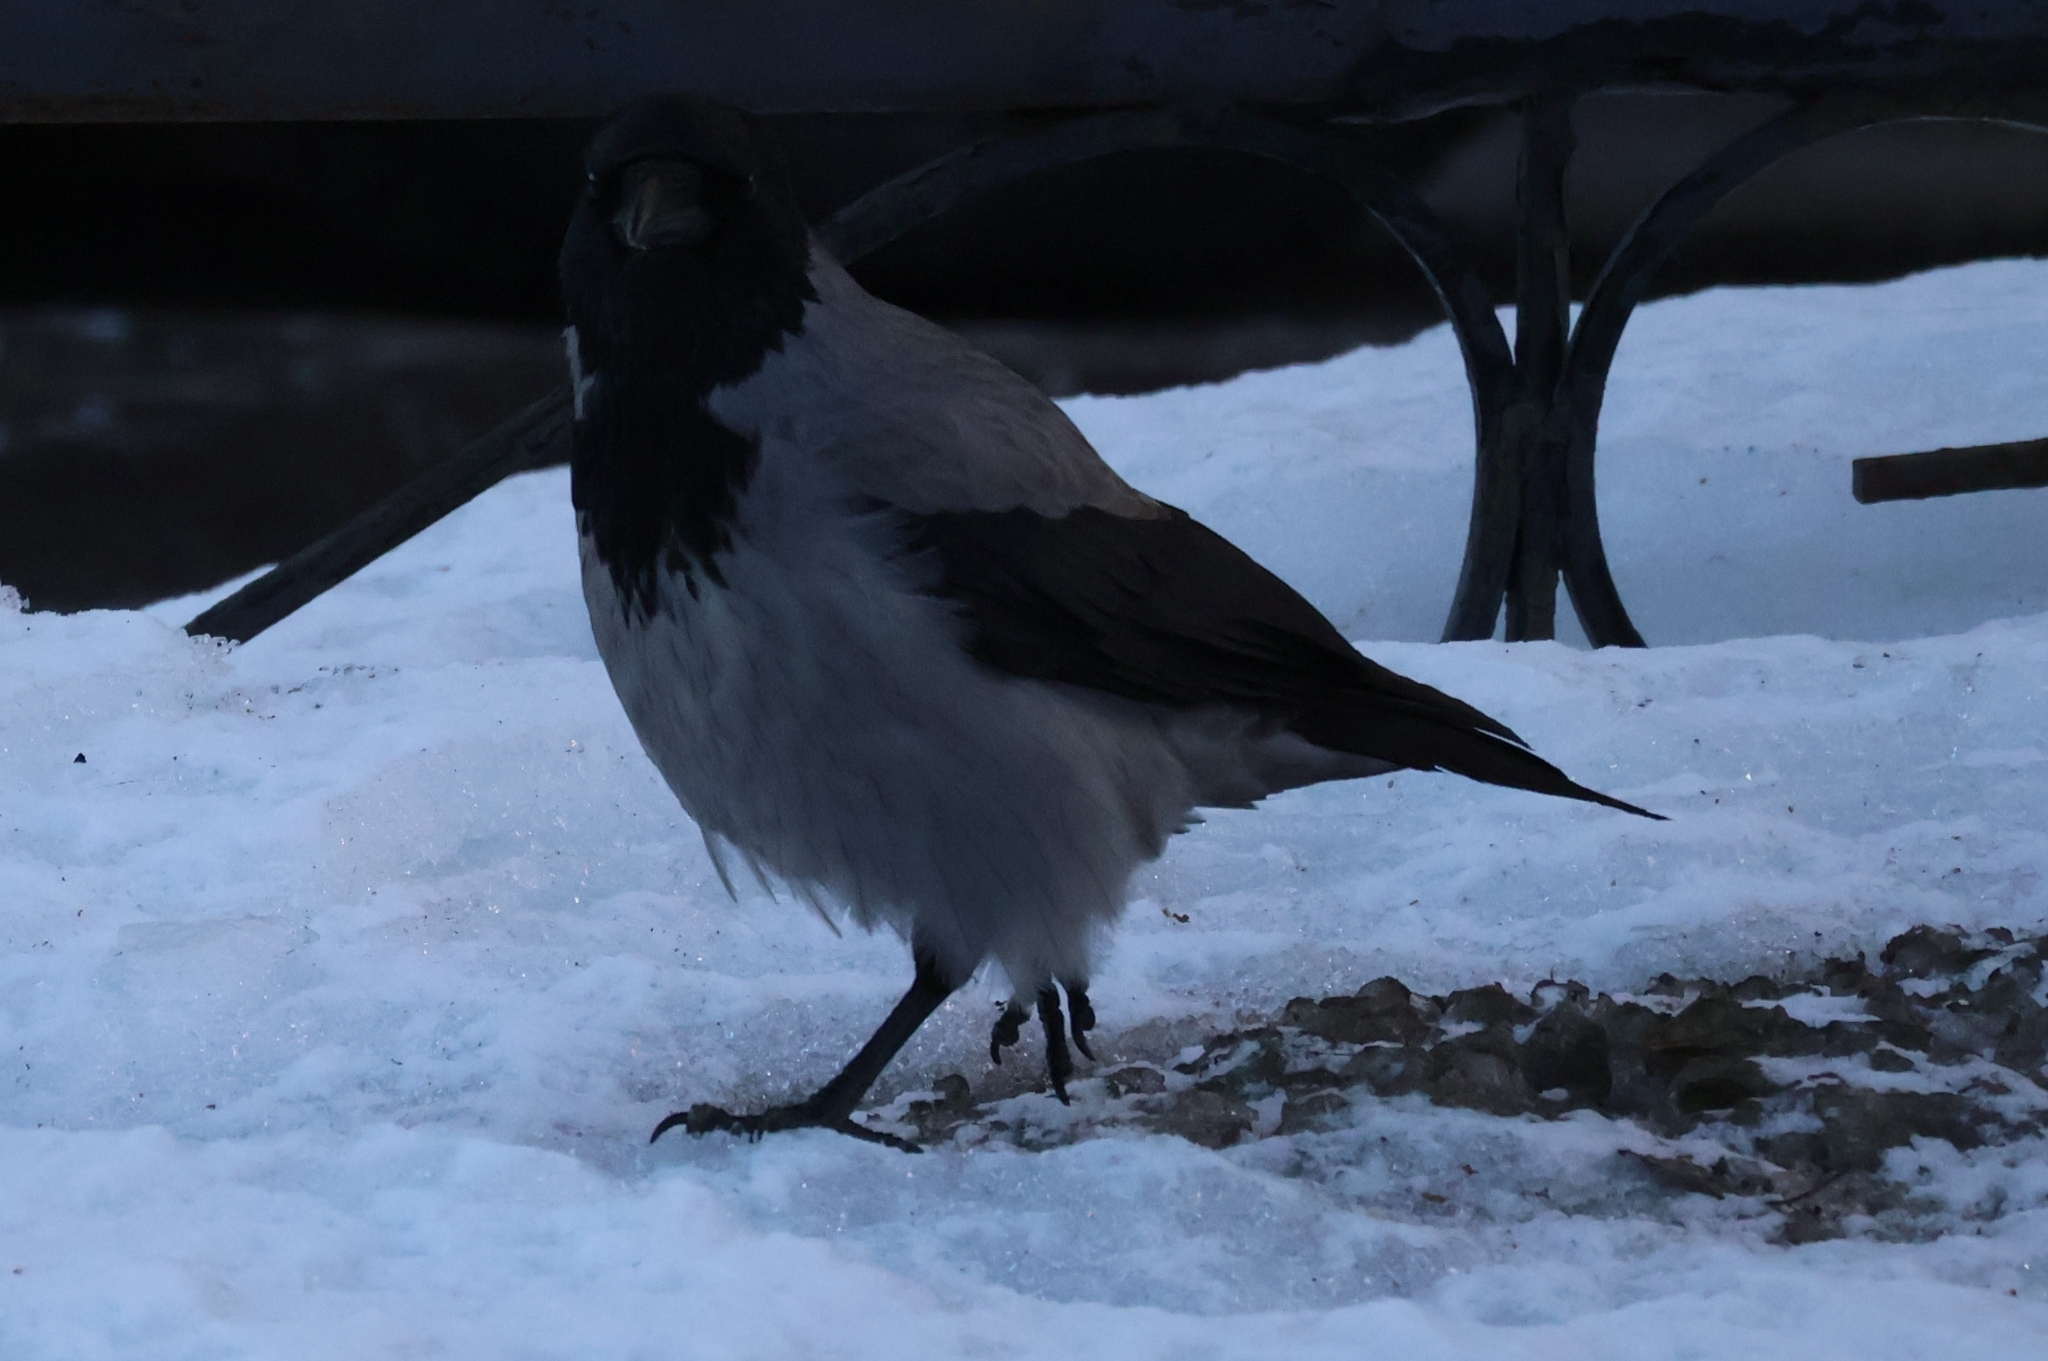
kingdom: Animalia
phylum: Chordata
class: Aves
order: Passeriformes
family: Corvidae
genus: Corvus
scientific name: Corvus cornix
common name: Hooded crow
